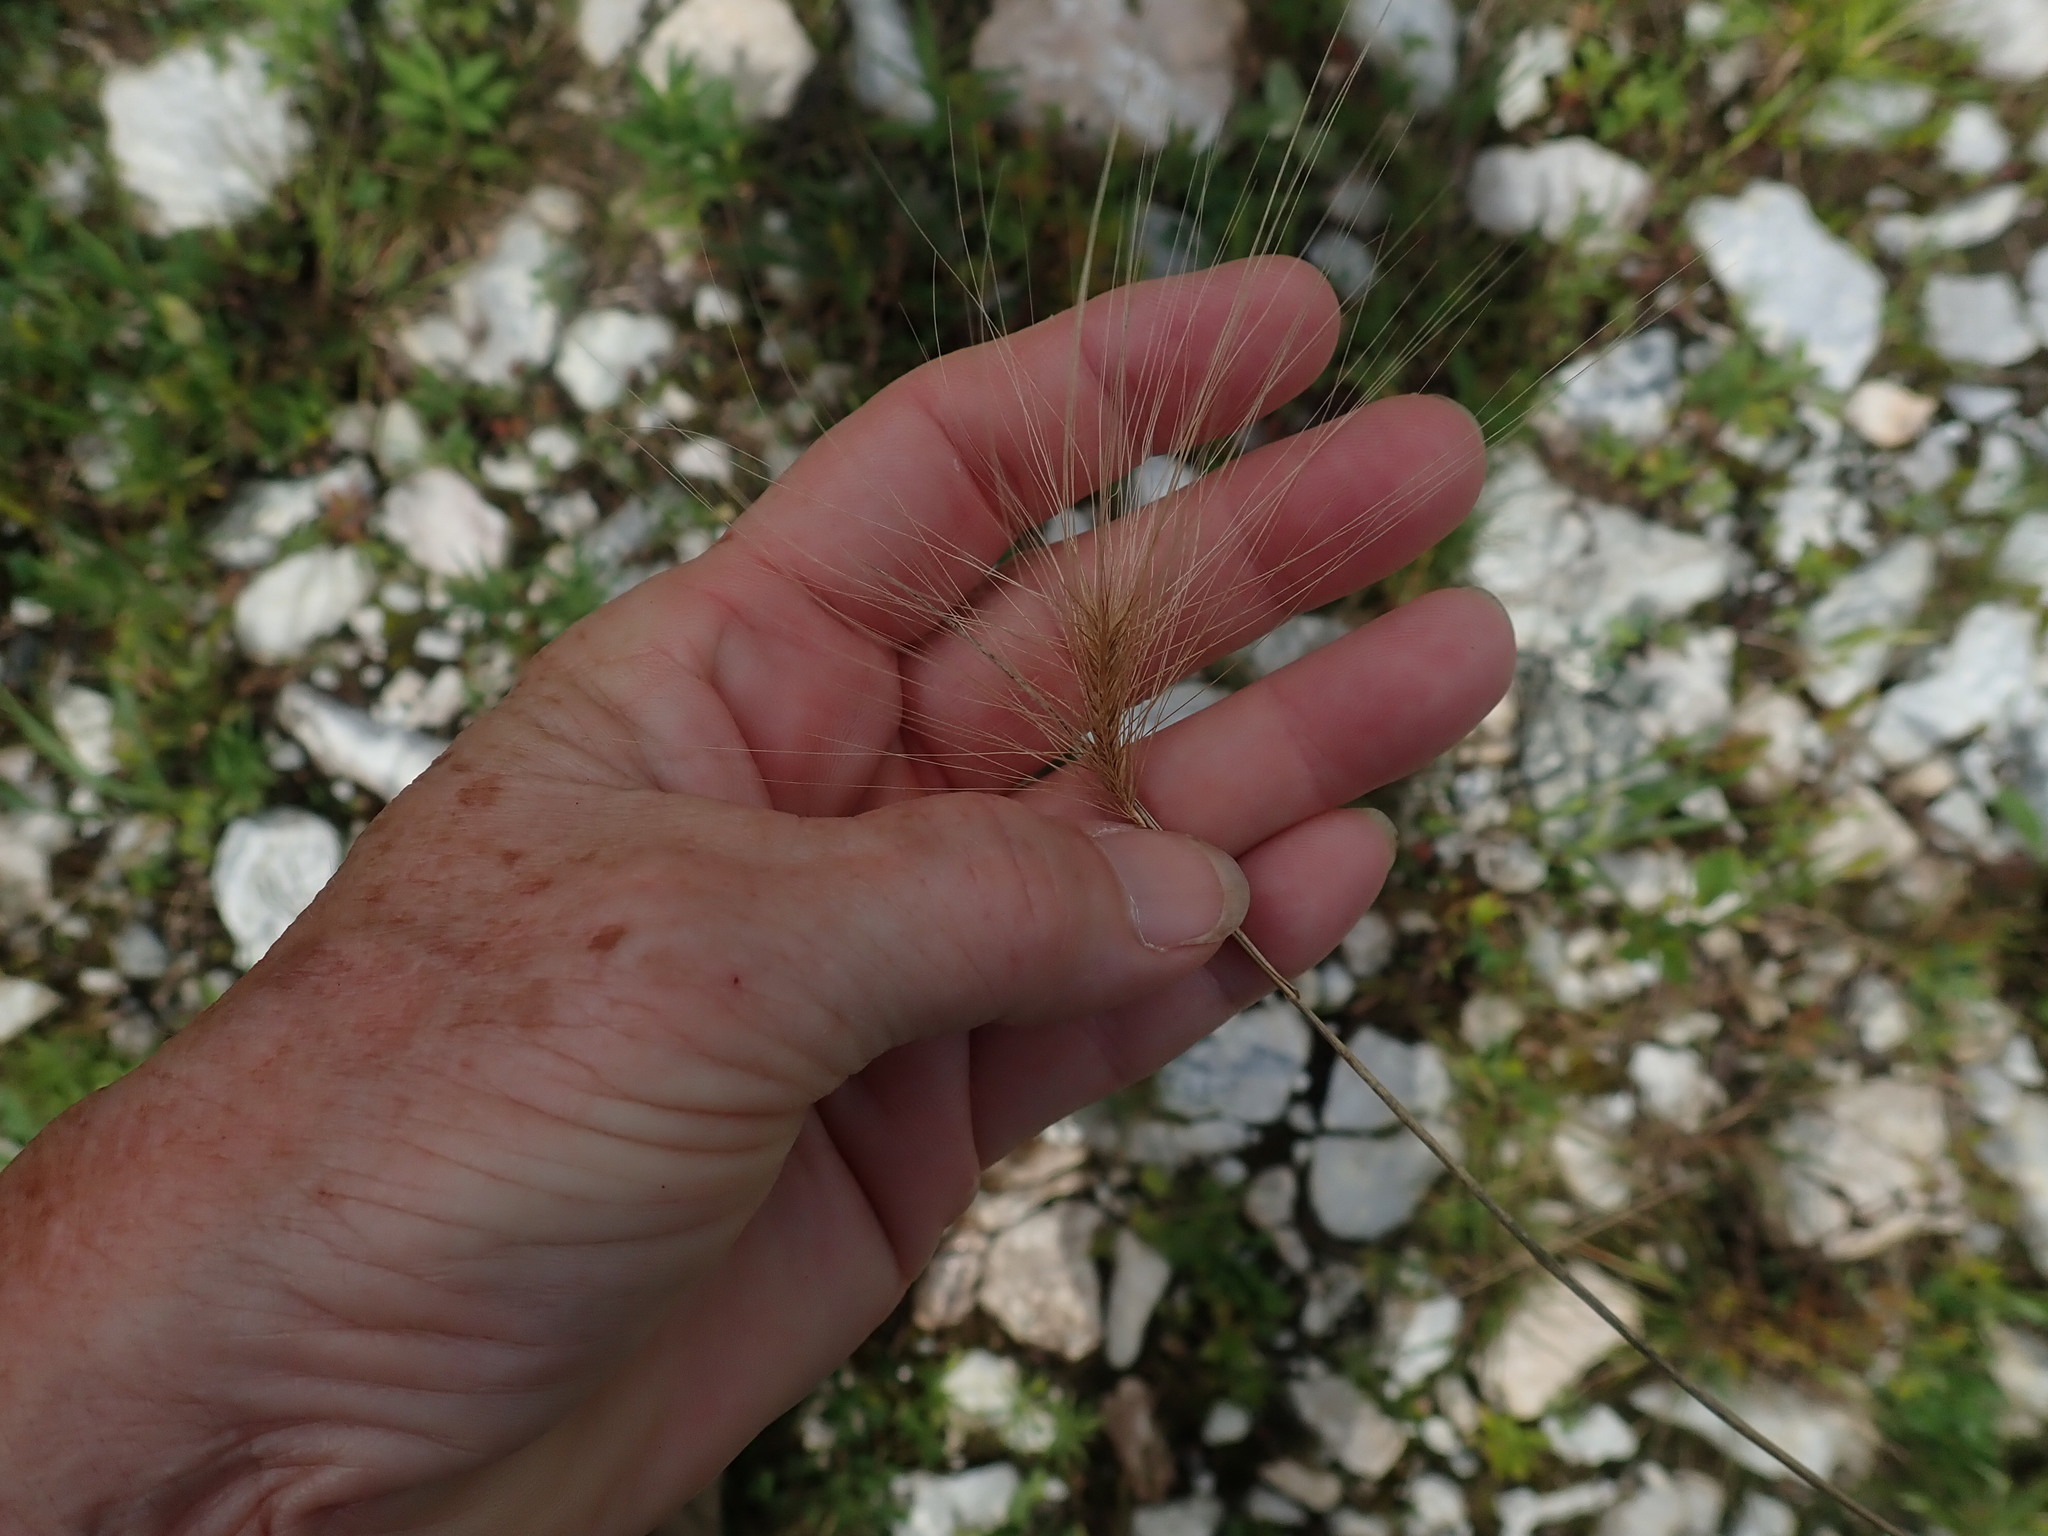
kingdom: Plantae
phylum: Tracheophyta
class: Liliopsida
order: Poales
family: Poaceae
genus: Hordeum
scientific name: Hordeum jubatum
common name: Foxtail barley
